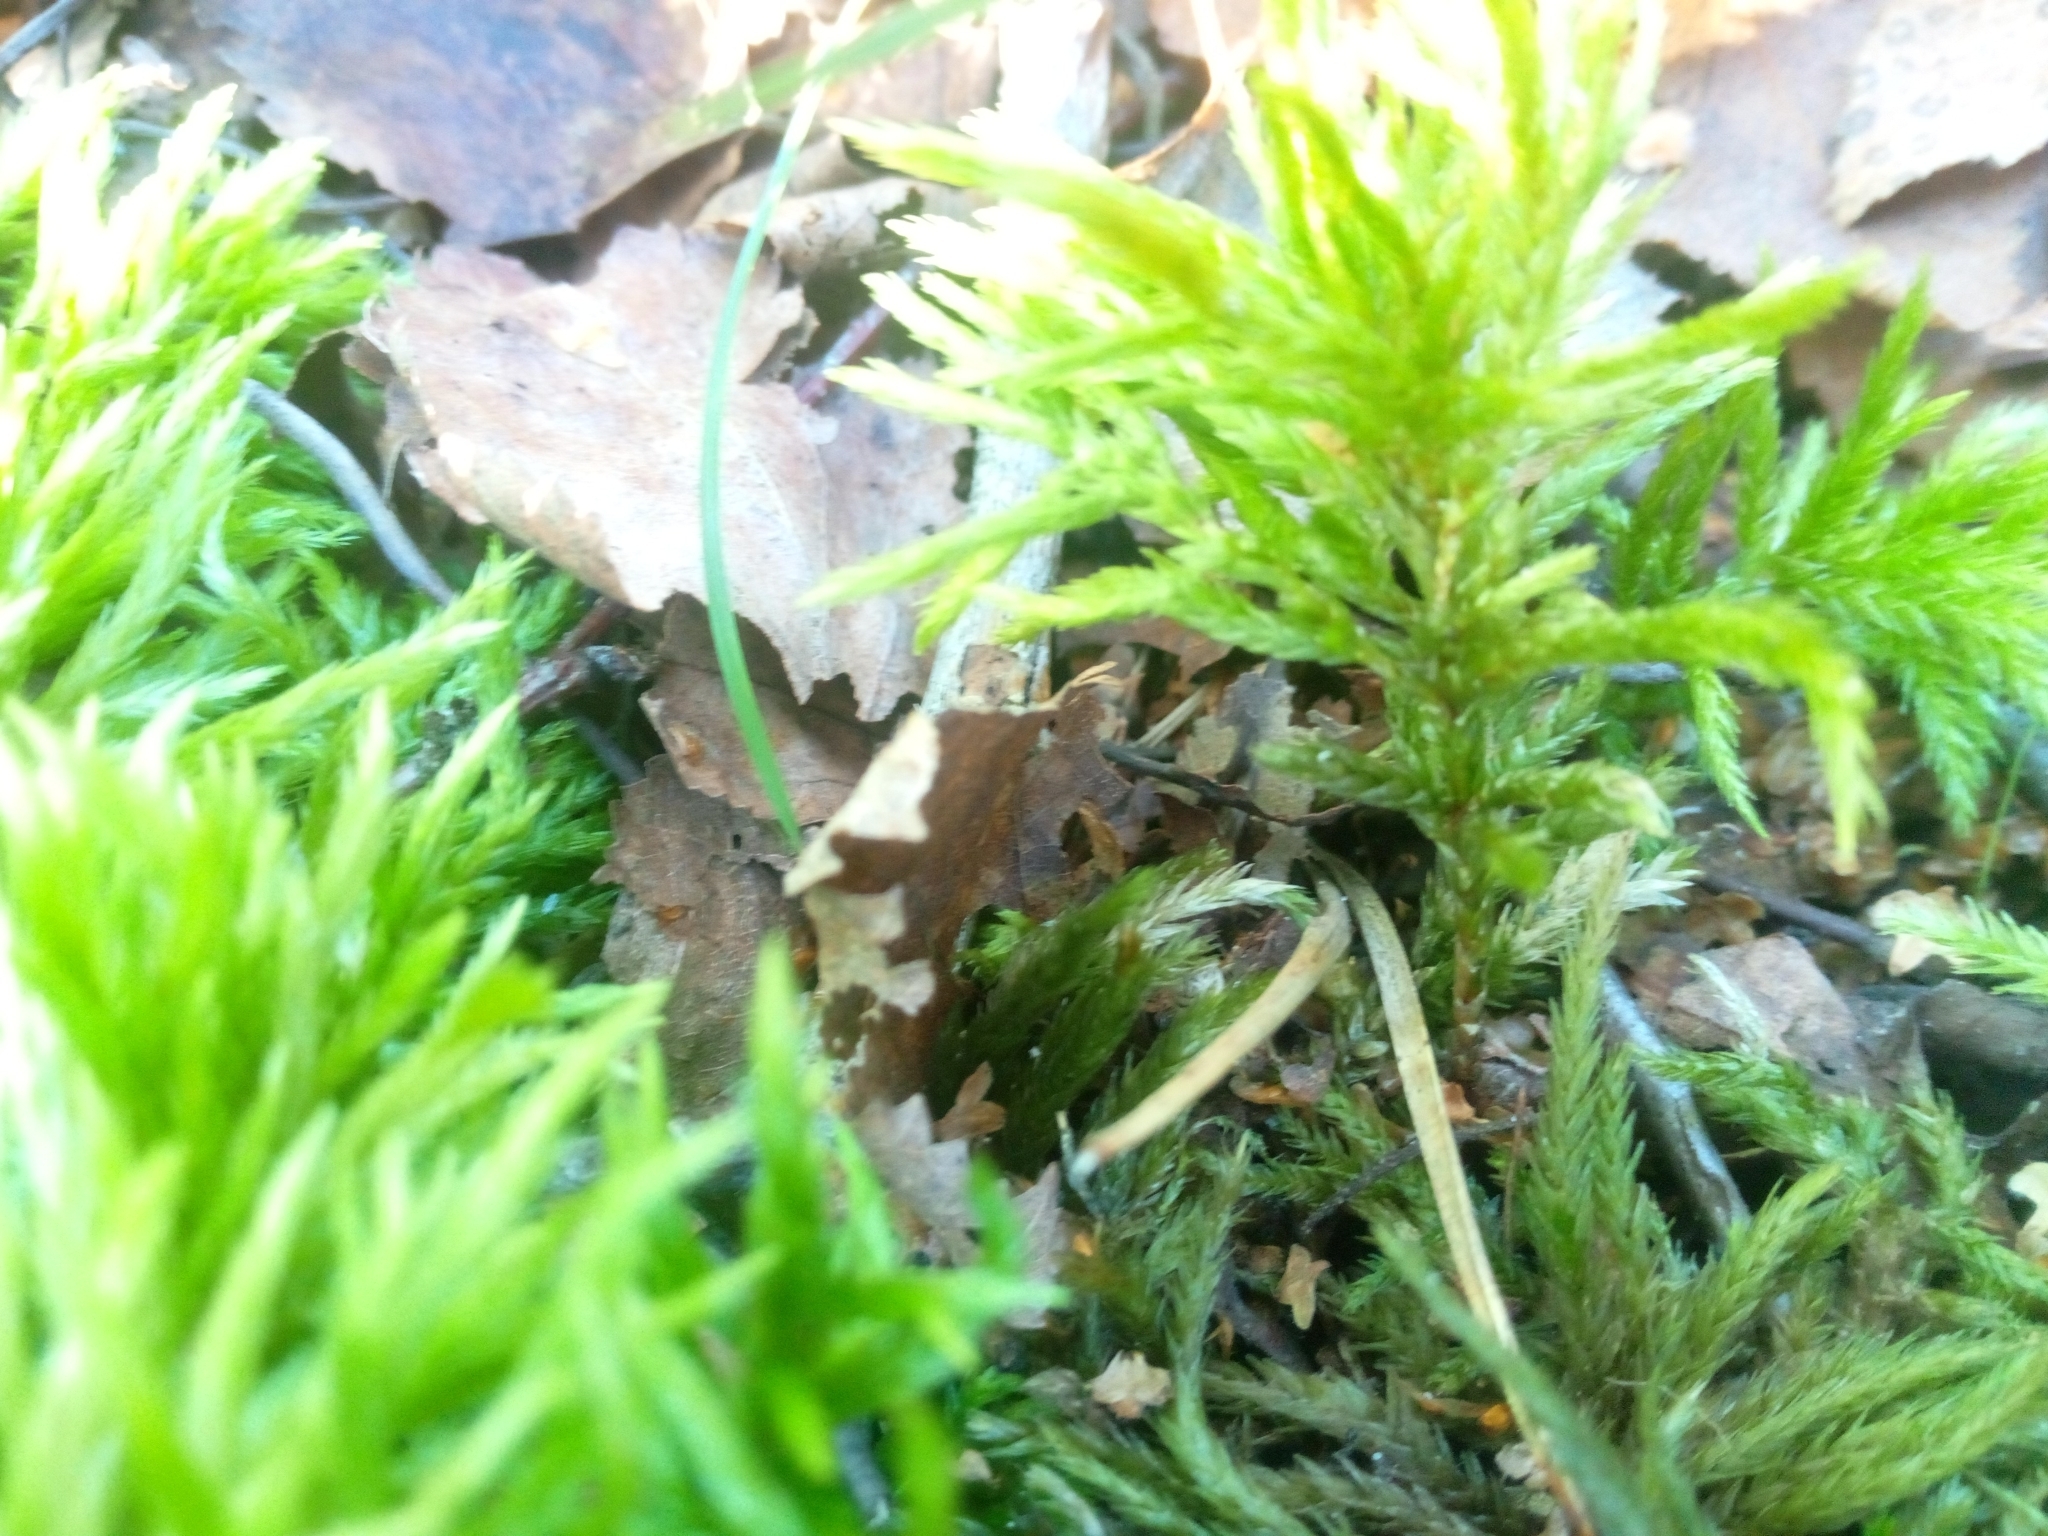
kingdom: Plantae
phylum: Bryophyta
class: Bryopsida
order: Hypnales
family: Climaciaceae
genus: Climacium
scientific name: Climacium dendroides
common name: Northern tree moss
